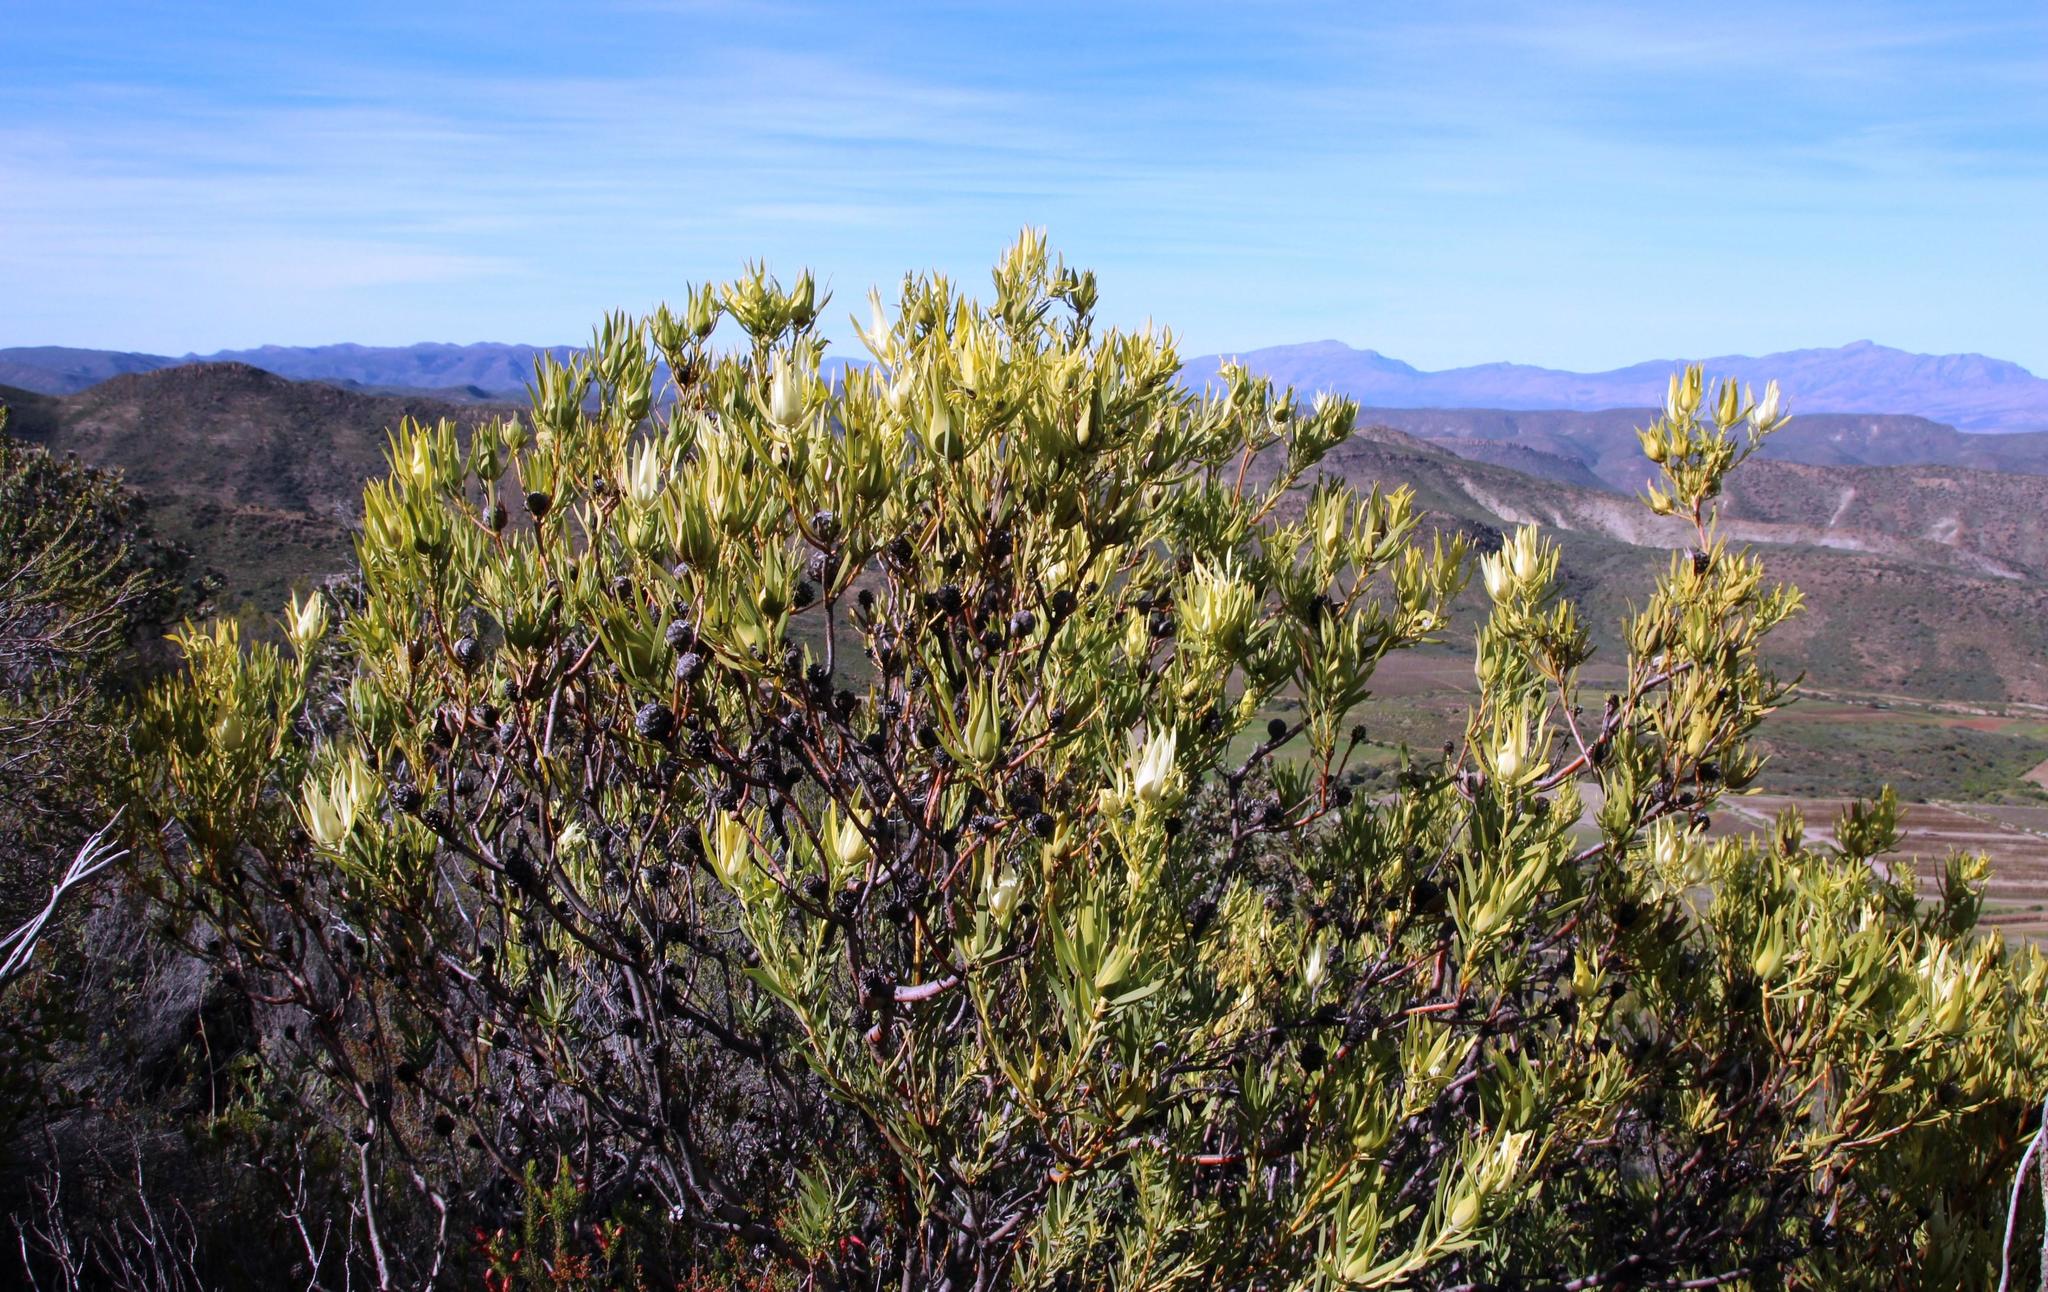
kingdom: Plantae
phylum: Tracheophyta
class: Magnoliopsida
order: Proteales
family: Proteaceae
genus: Leucadendron
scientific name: Leucadendron salignum
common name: Common sunshine conebush
